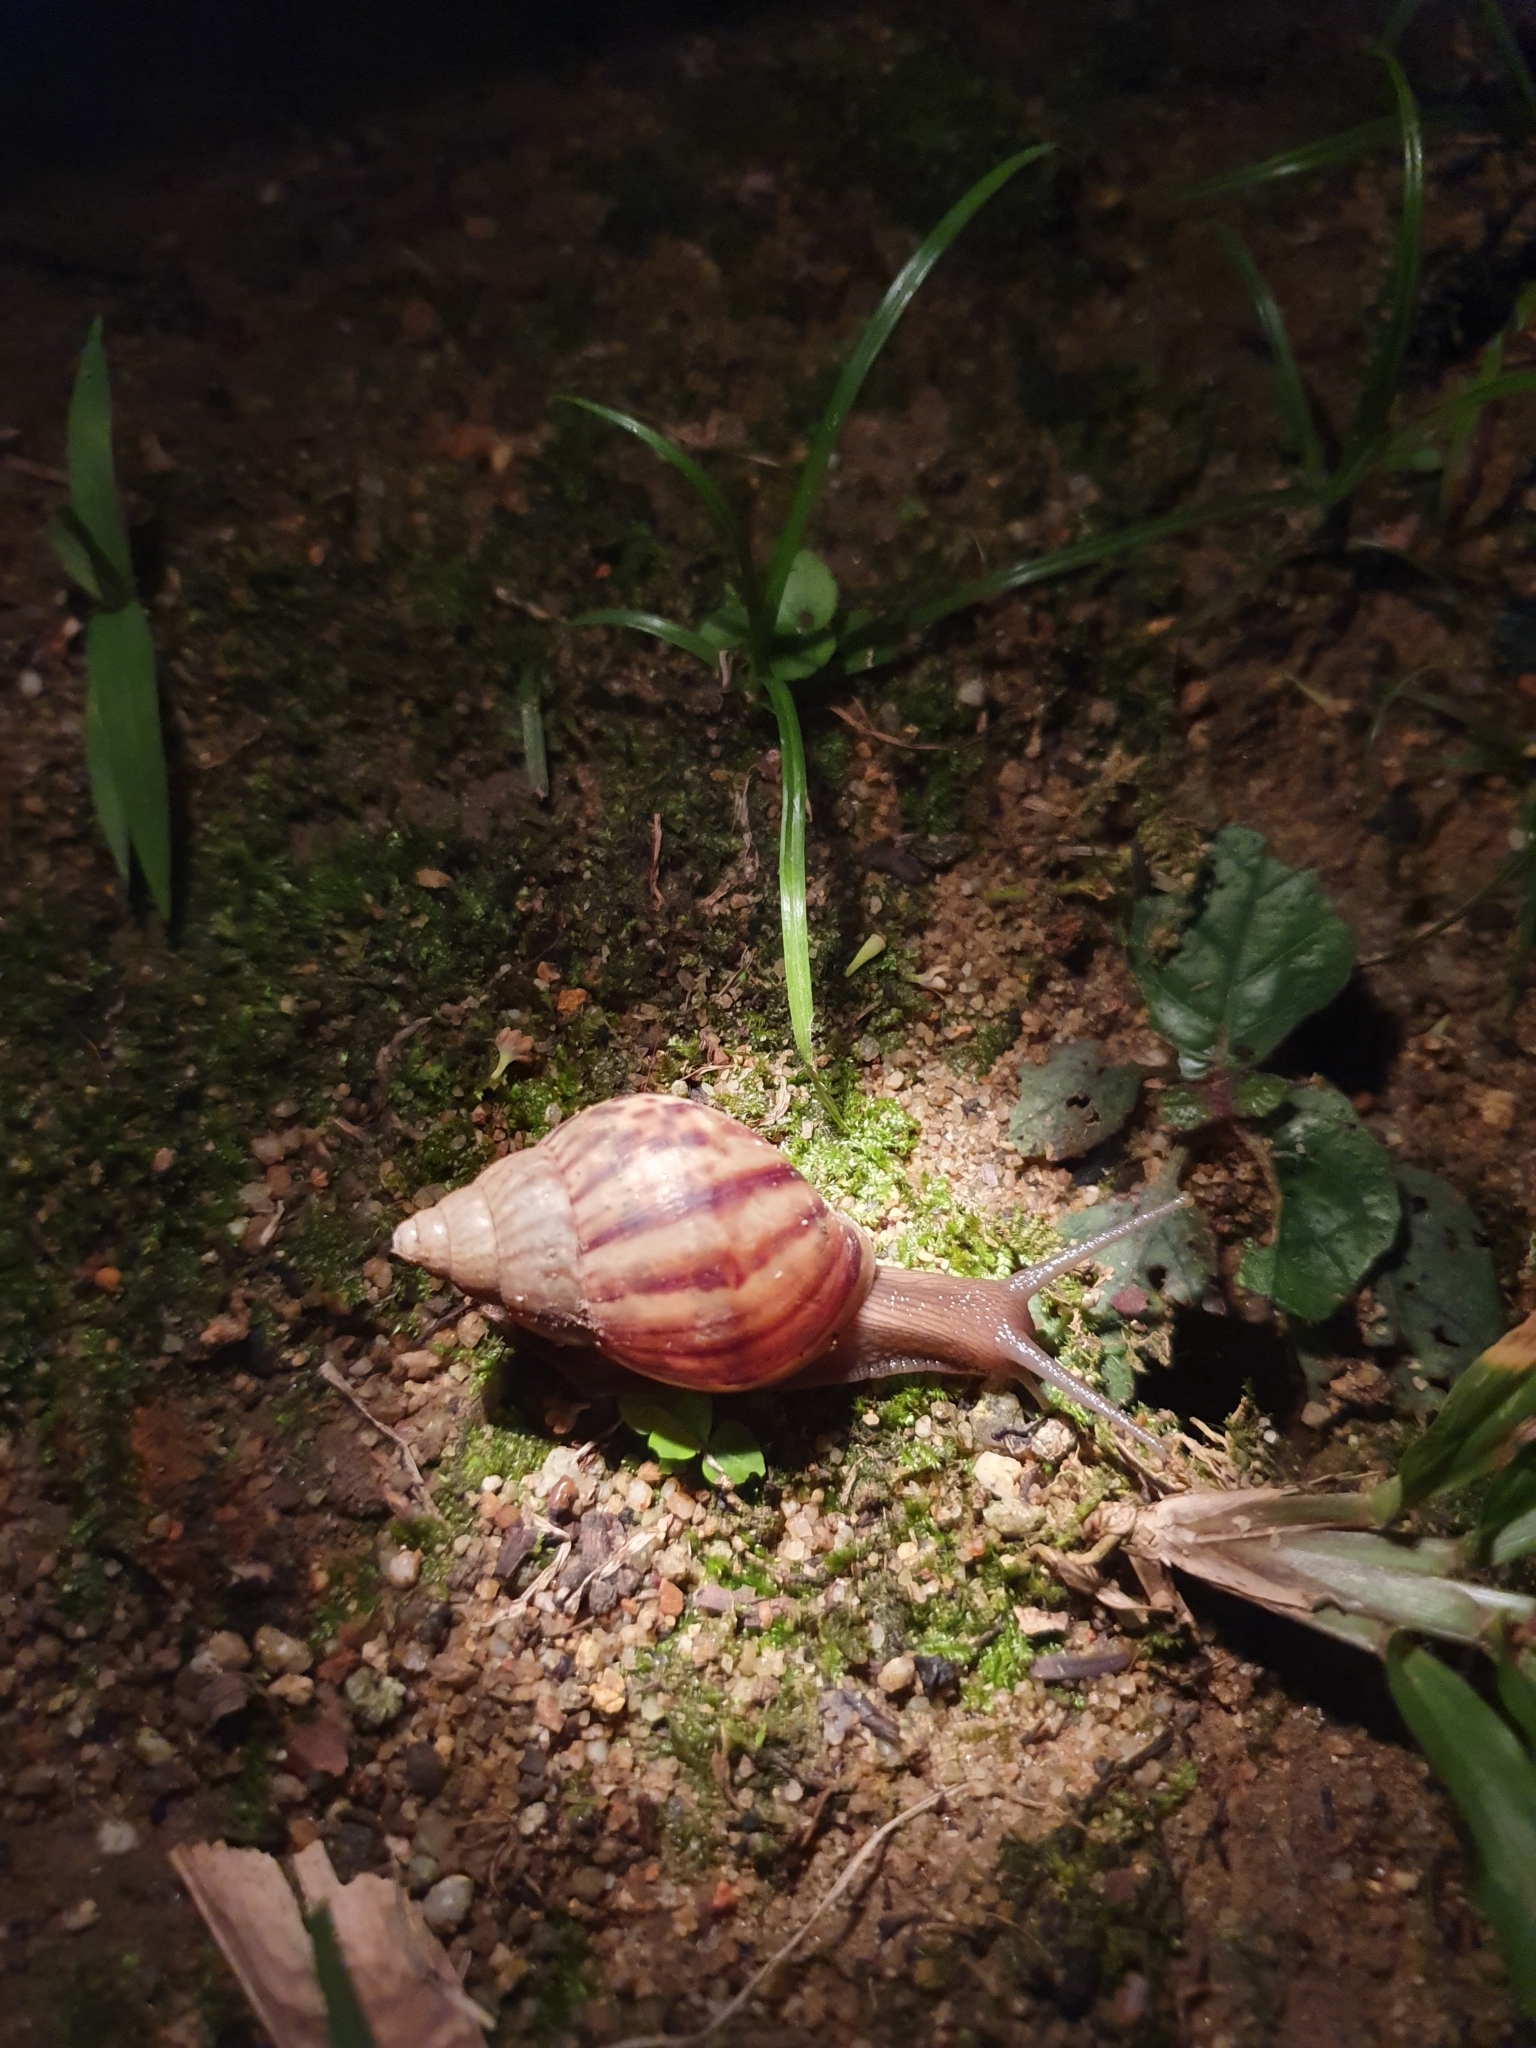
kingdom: Animalia
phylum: Mollusca
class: Gastropoda
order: Stylommatophora
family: Achatinidae
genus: Lissachatina
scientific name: Lissachatina fulica
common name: Giant african snail
